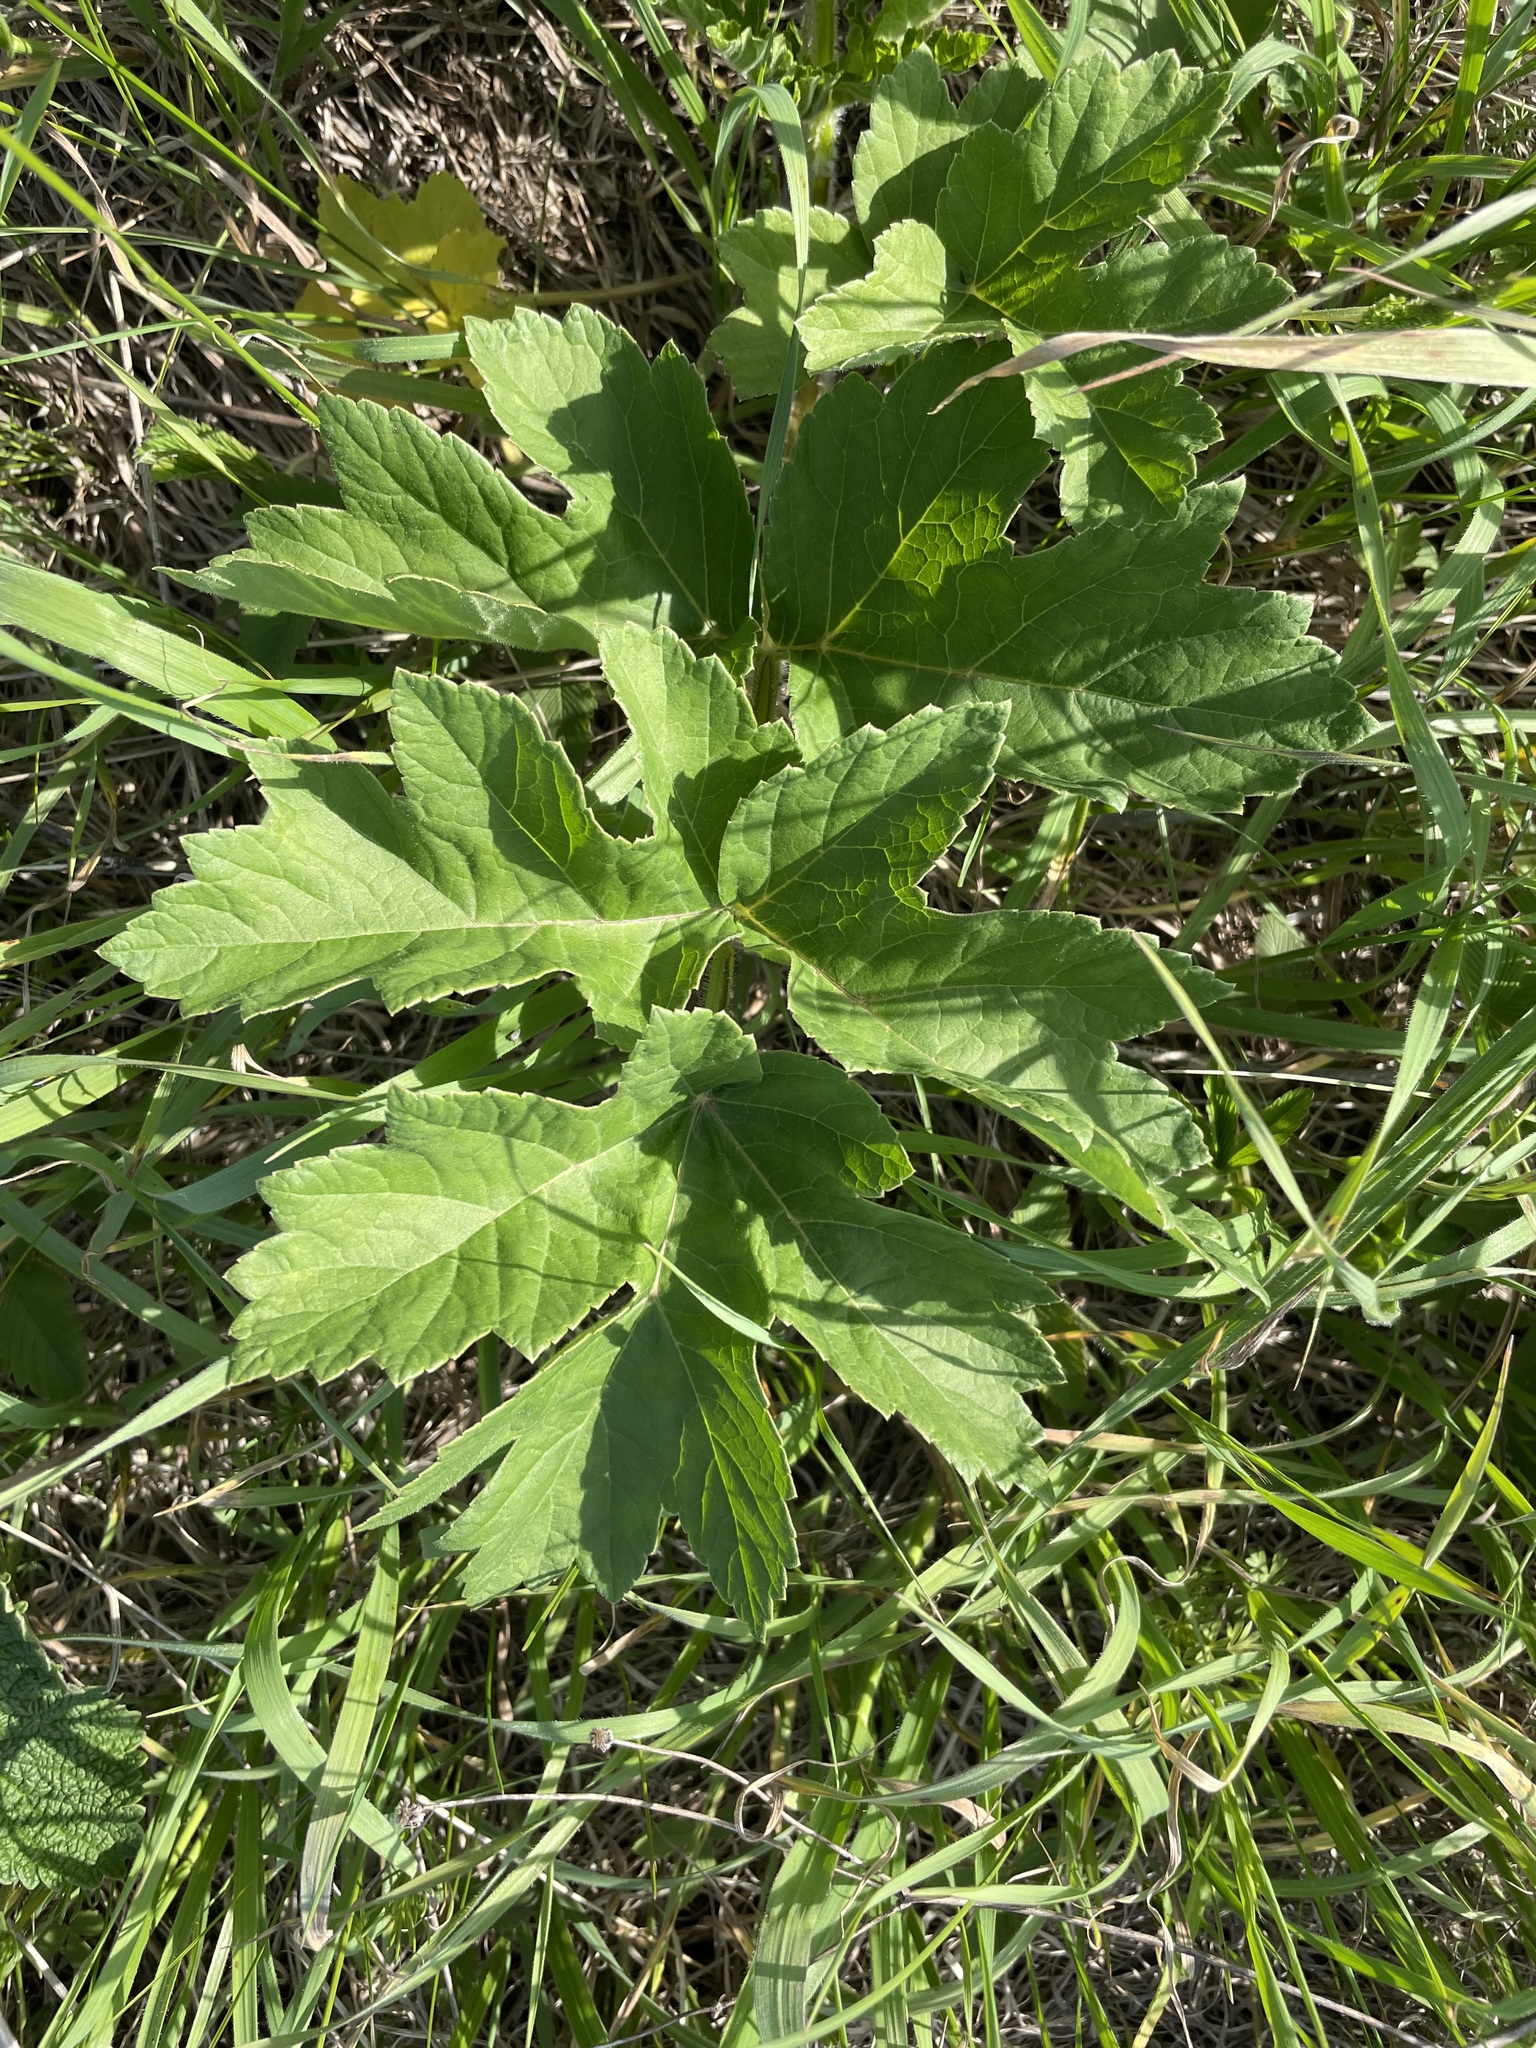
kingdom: Plantae
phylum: Tracheophyta
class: Magnoliopsida
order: Apiales
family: Apiaceae
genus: Heracleum
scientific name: Heracleum sphondylium
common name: Hogweed
